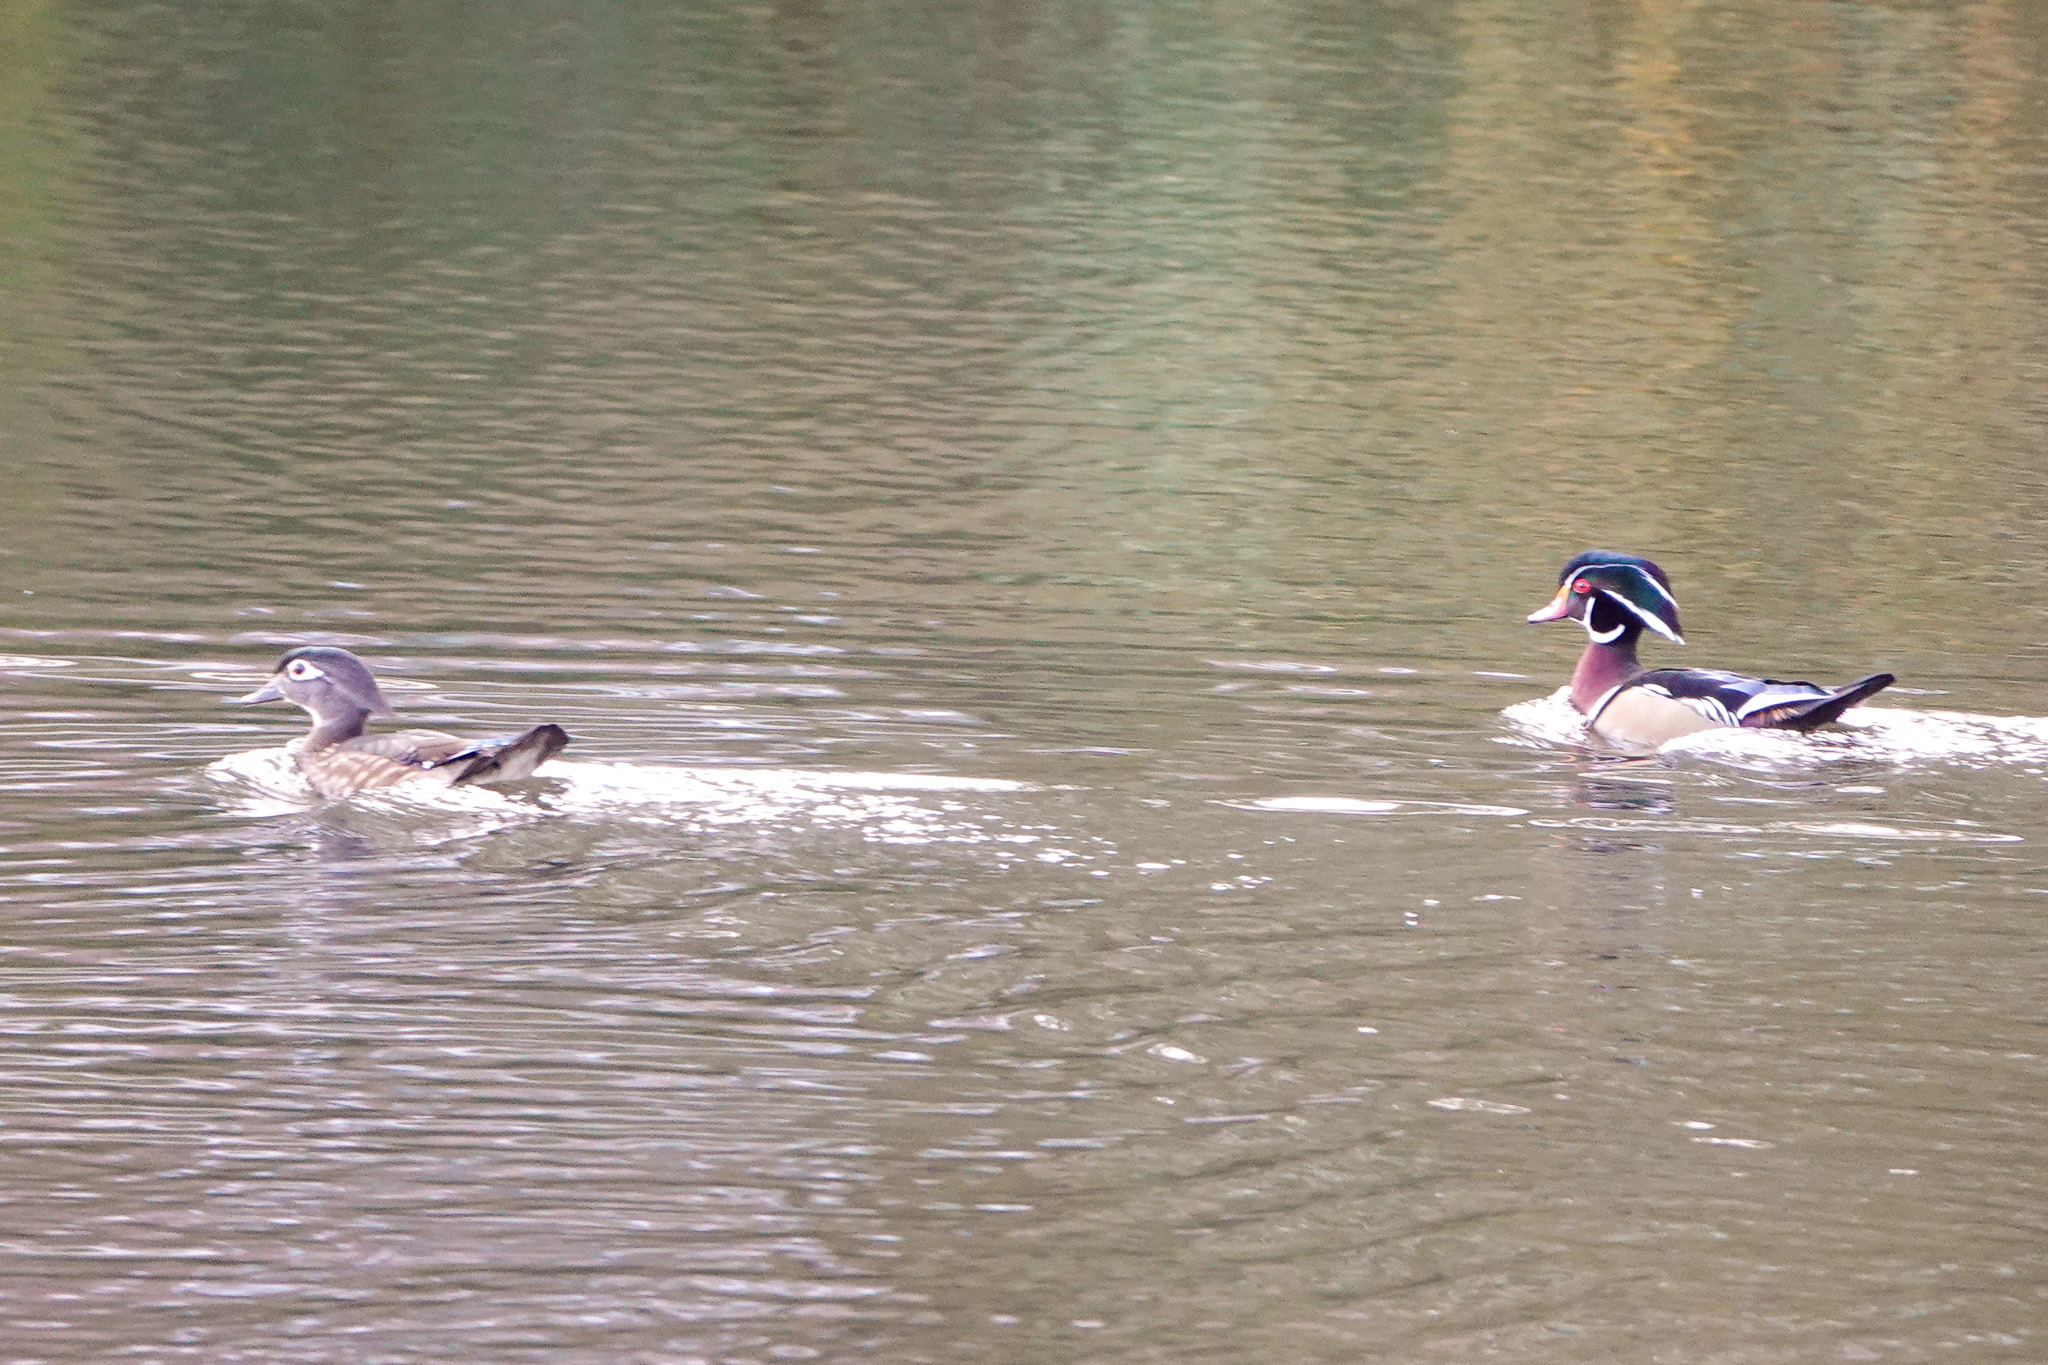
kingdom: Animalia
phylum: Chordata
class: Aves
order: Anseriformes
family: Anatidae
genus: Aix
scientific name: Aix sponsa
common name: Wood duck
